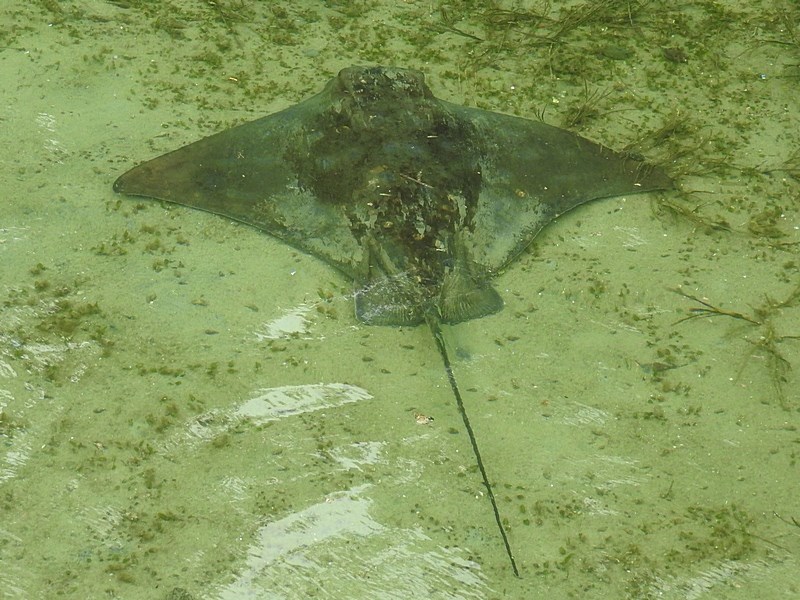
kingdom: Animalia
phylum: Chordata
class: Elasmobranchii
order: Myliobatiformes
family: Myliobatidae
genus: Myliobatis
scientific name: Myliobatis tenuicaudatus
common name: Eagle ray
